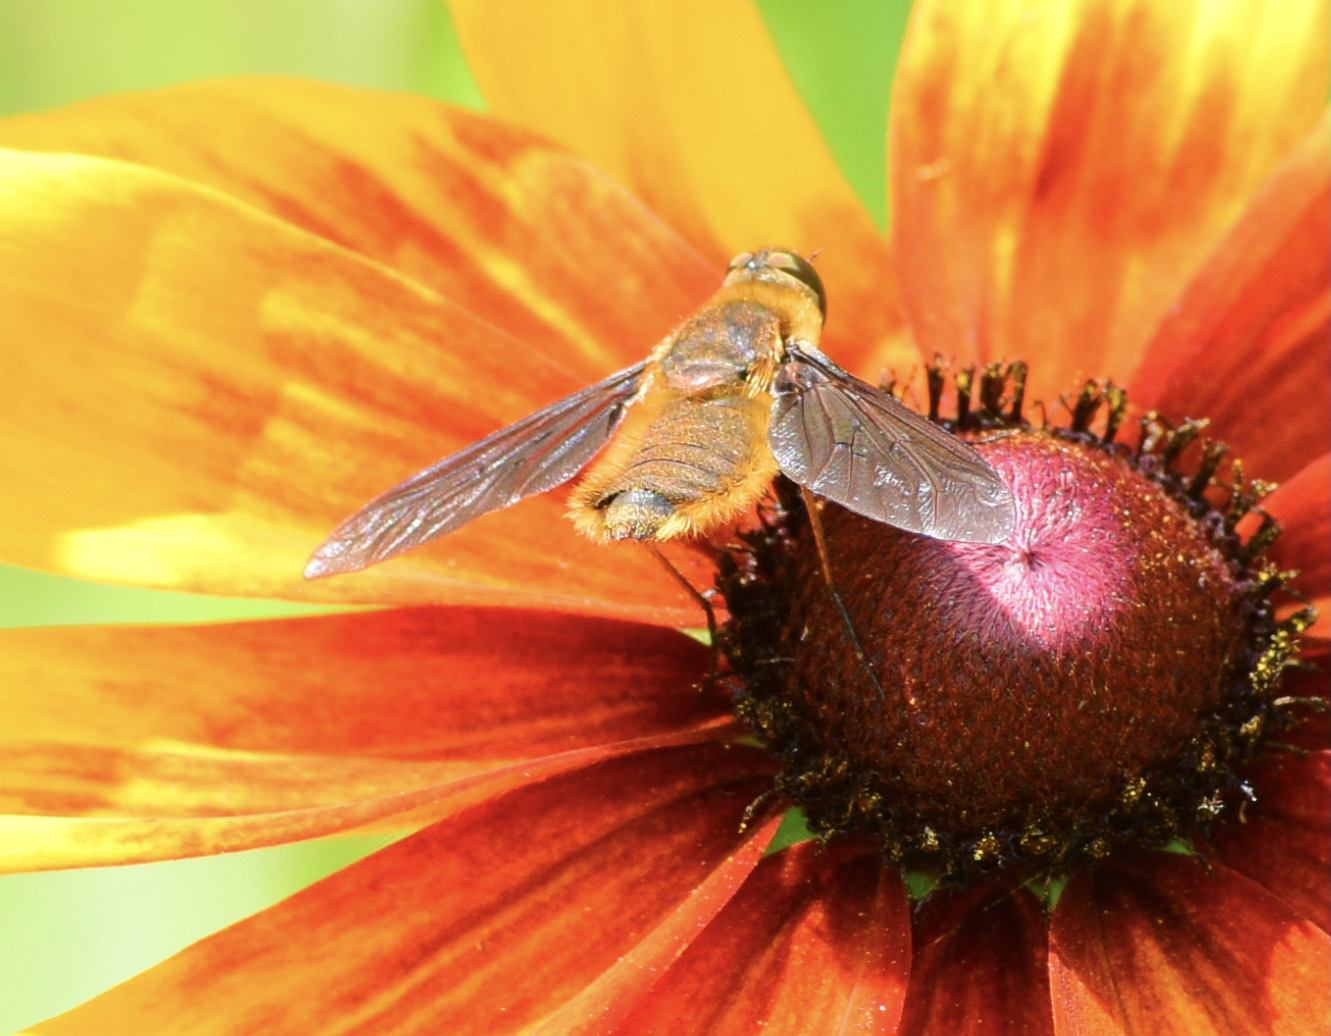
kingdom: Animalia
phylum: Arthropoda
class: Insecta
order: Diptera
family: Bombyliidae
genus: Poecilanthrax
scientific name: Poecilanthrax tegminipennis
